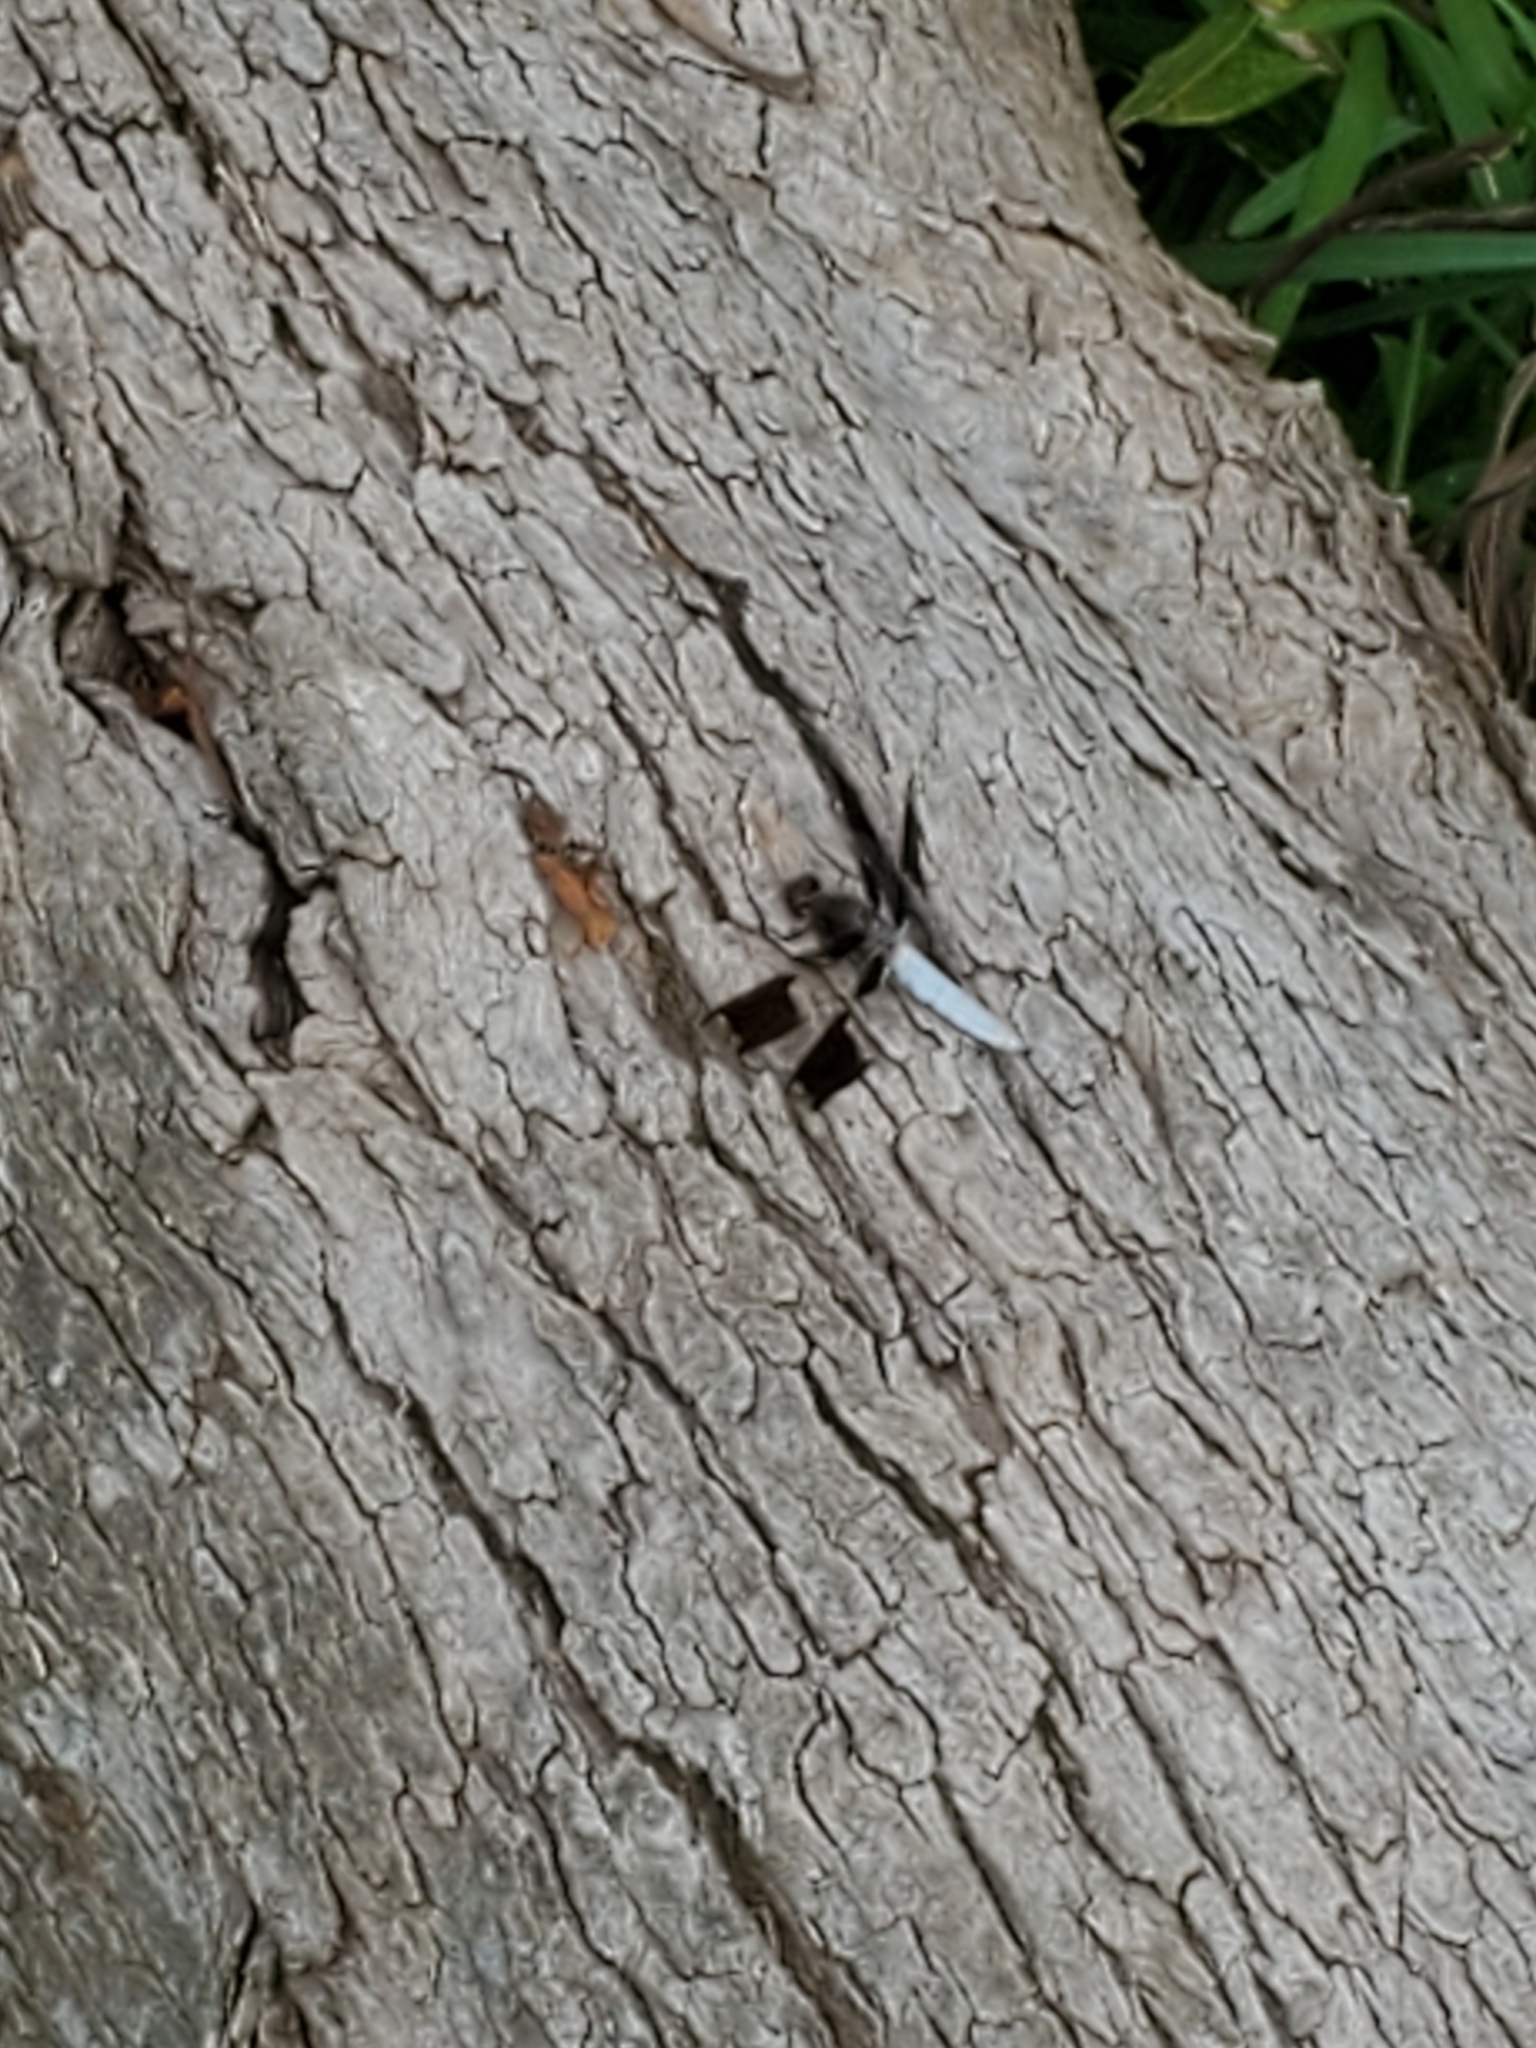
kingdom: Animalia
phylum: Arthropoda
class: Insecta
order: Odonata
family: Libellulidae
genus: Plathemis
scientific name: Plathemis lydia
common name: Common whitetail
